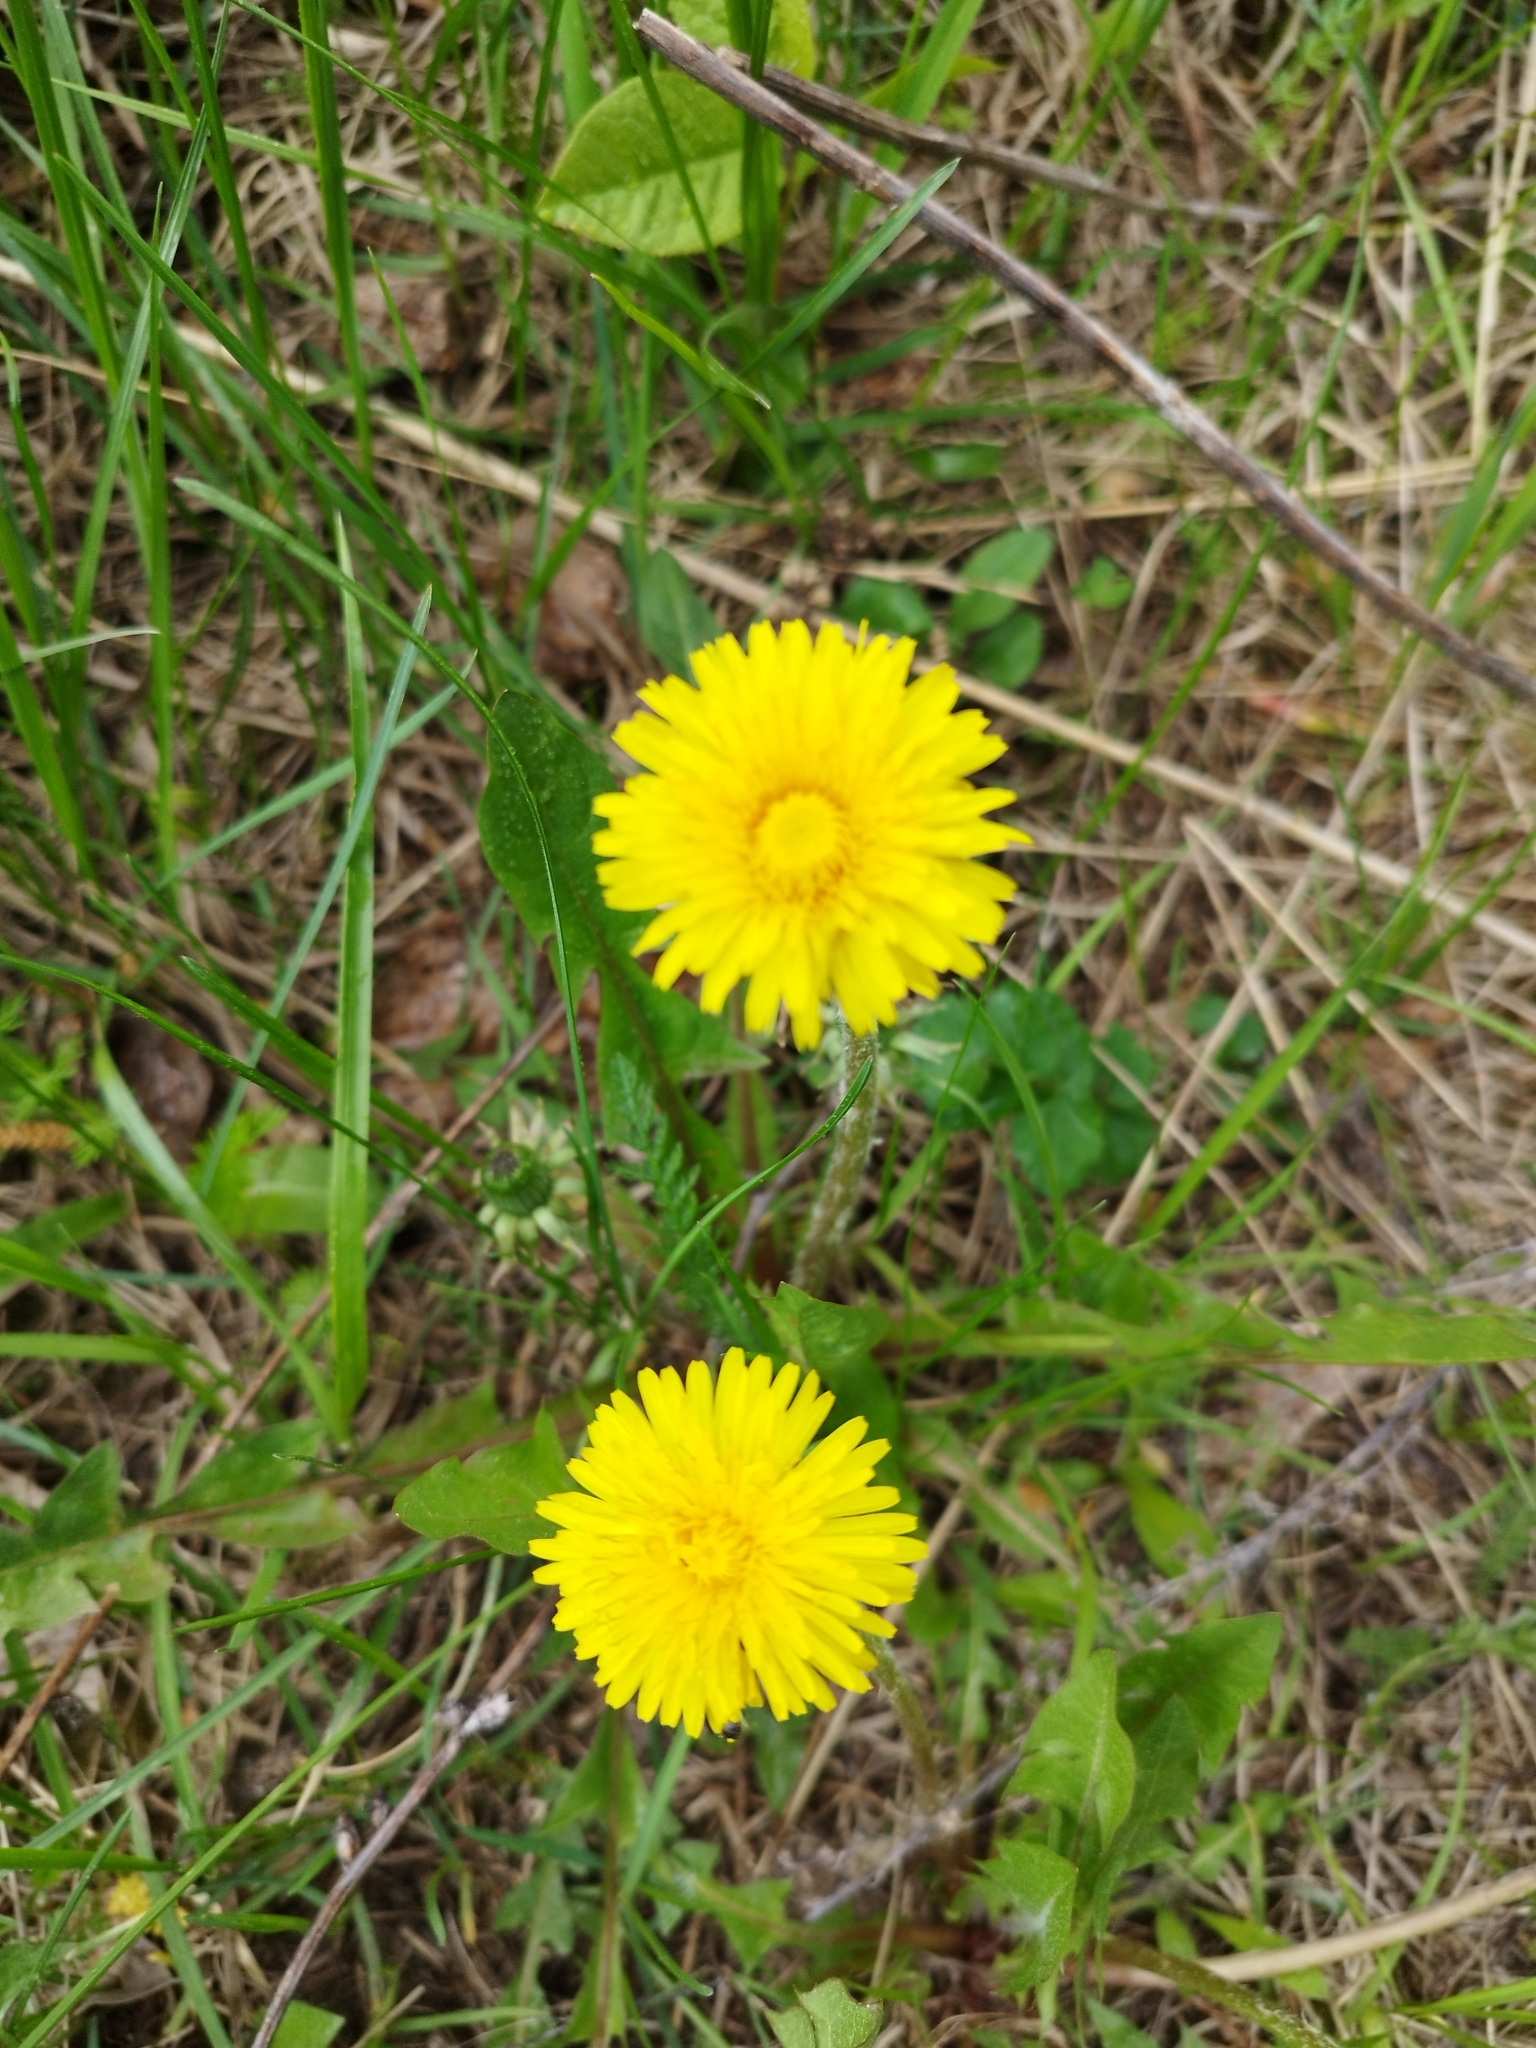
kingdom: Plantae
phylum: Tracheophyta
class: Magnoliopsida
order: Asterales
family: Asteraceae
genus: Taraxacum
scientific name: Taraxacum officinale
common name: Common dandelion
